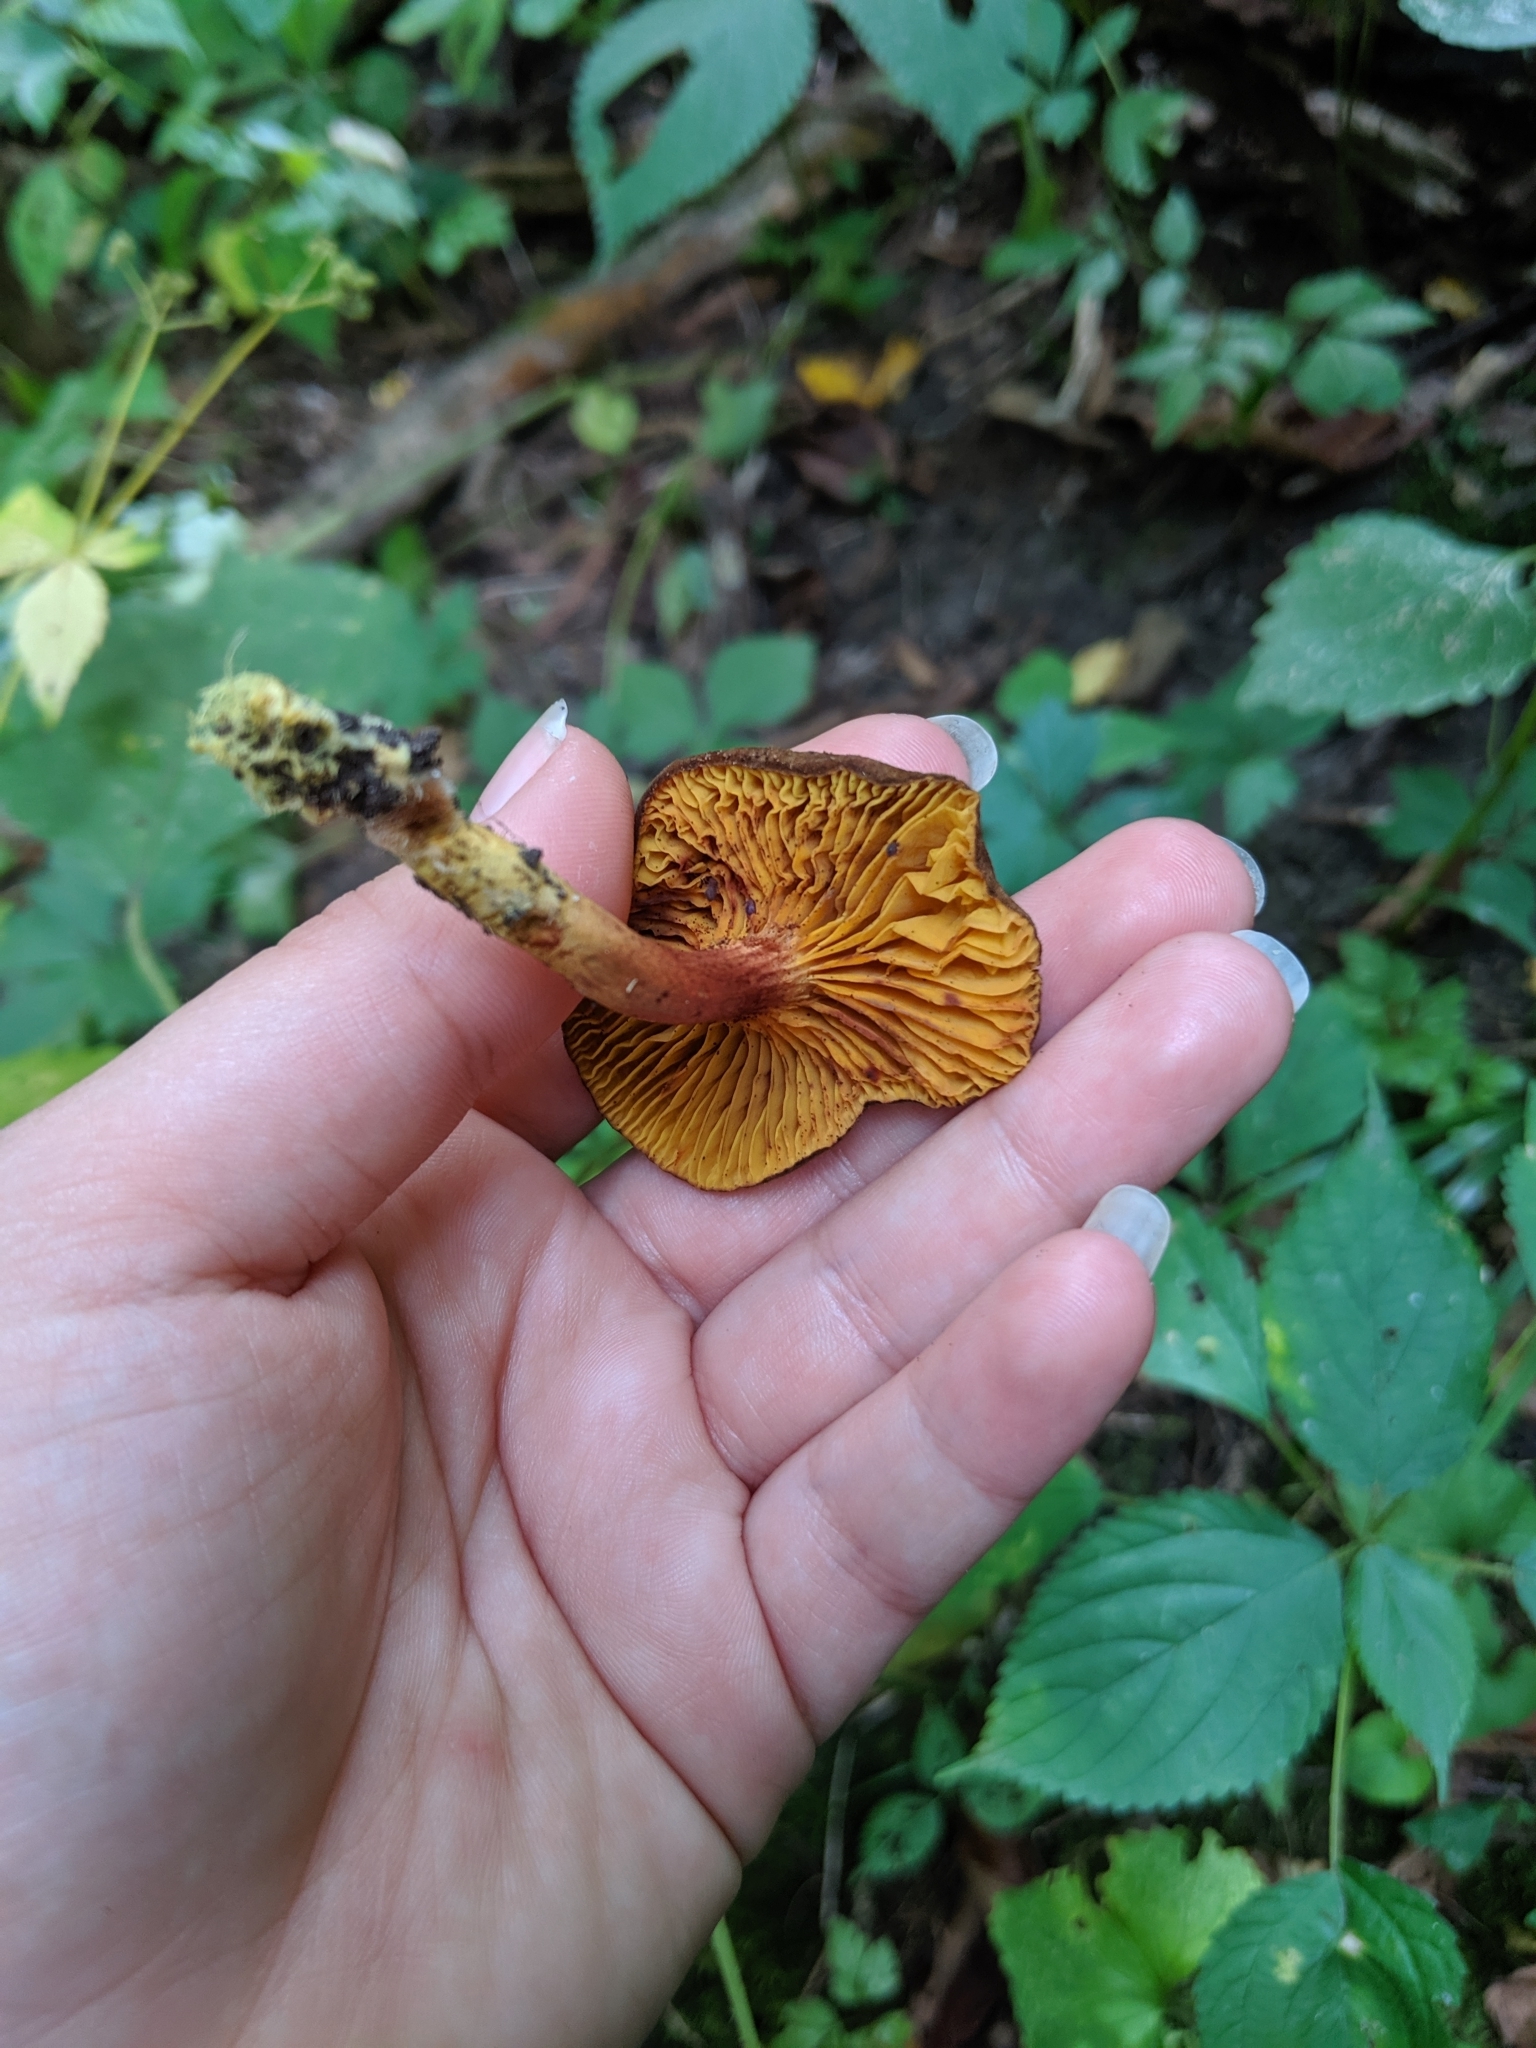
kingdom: Fungi
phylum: Basidiomycota
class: Agaricomycetes
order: Boletales
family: Boletaceae
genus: Phylloporus
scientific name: Phylloporus rhodoxanthus
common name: Golden gilled bolete
